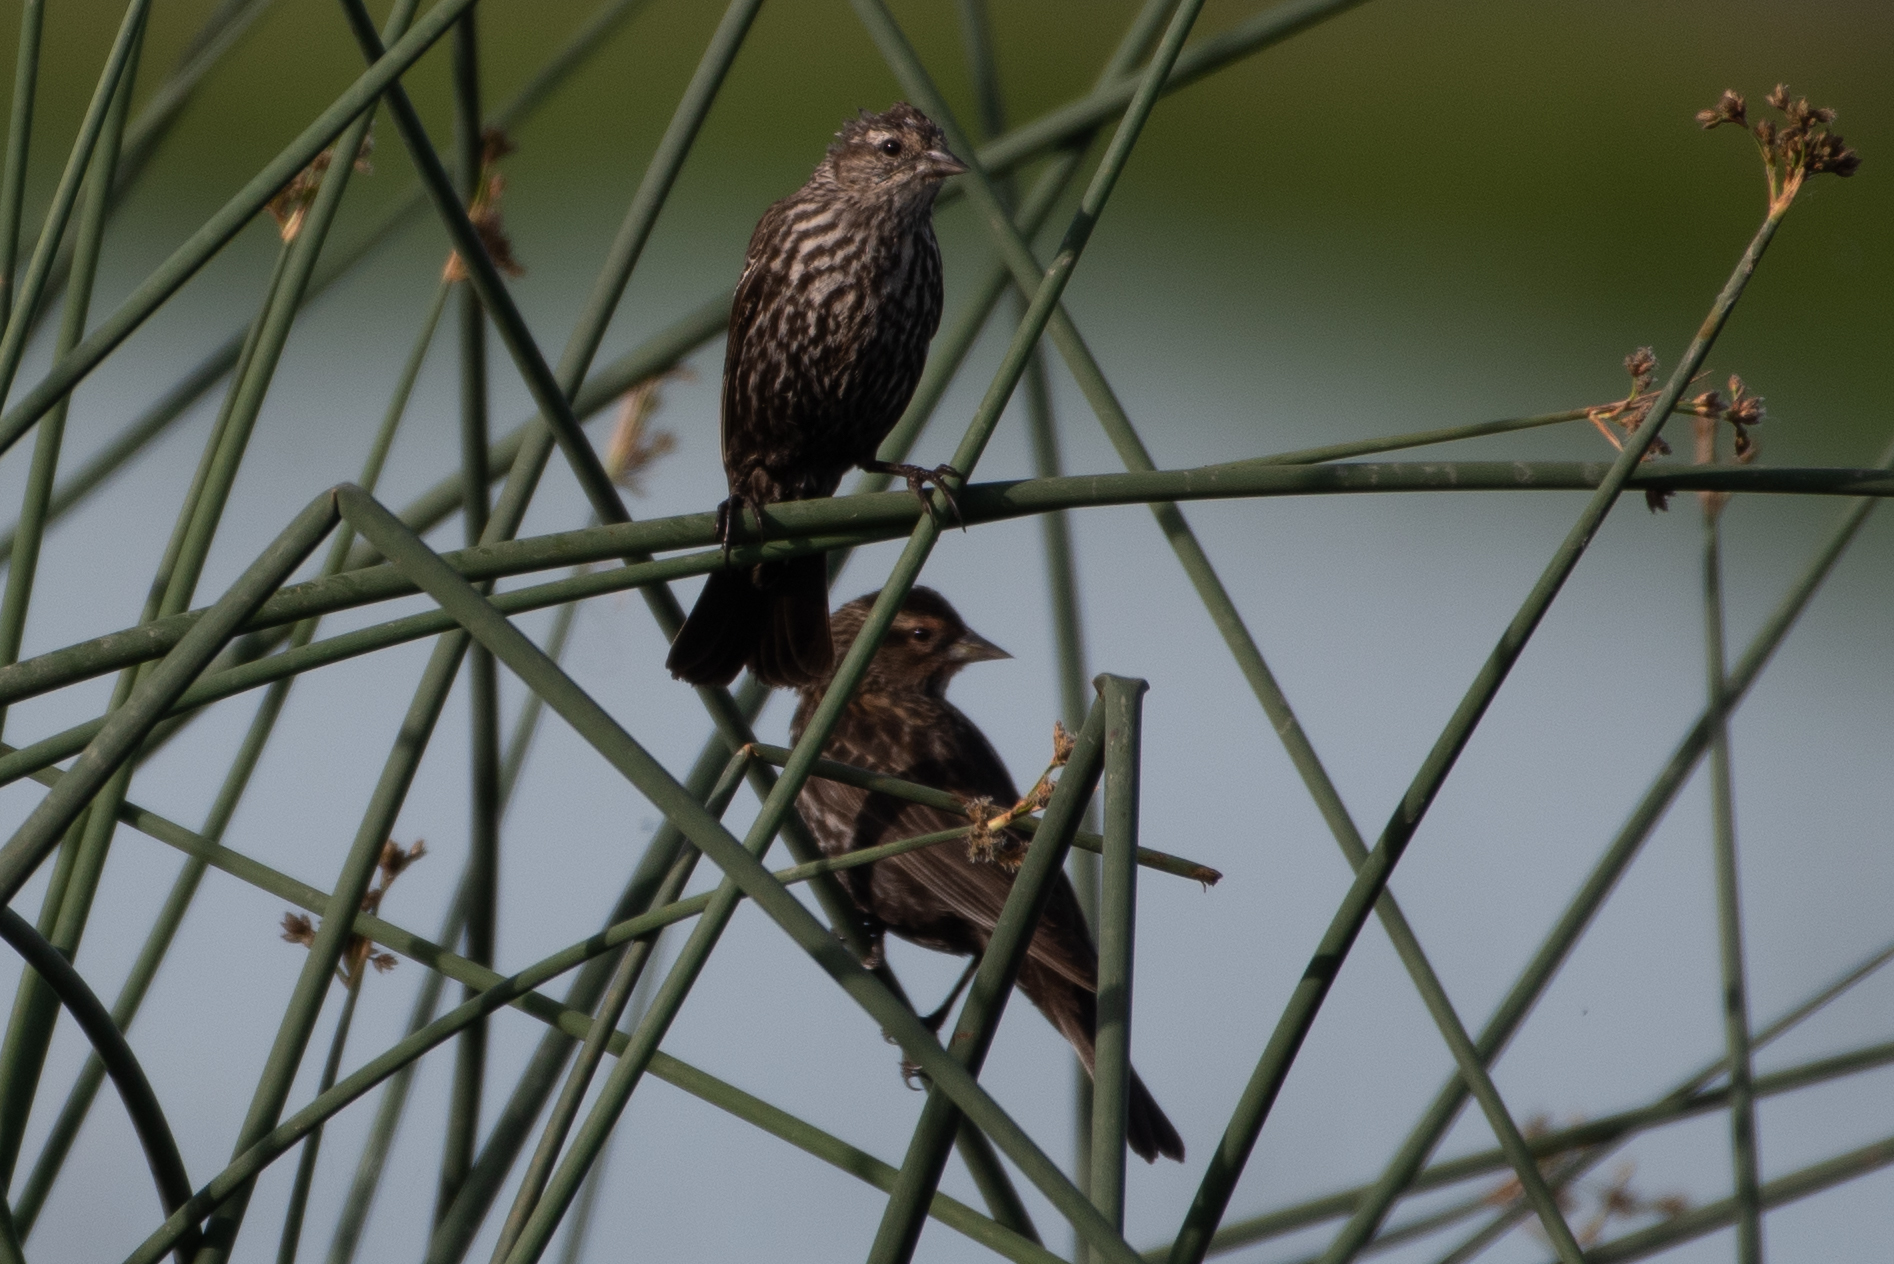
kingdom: Animalia
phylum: Chordata
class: Aves
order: Passeriformes
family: Icteridae
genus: Agelaius
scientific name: Agelaius phoeniceus
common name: Red-winged blackbird
